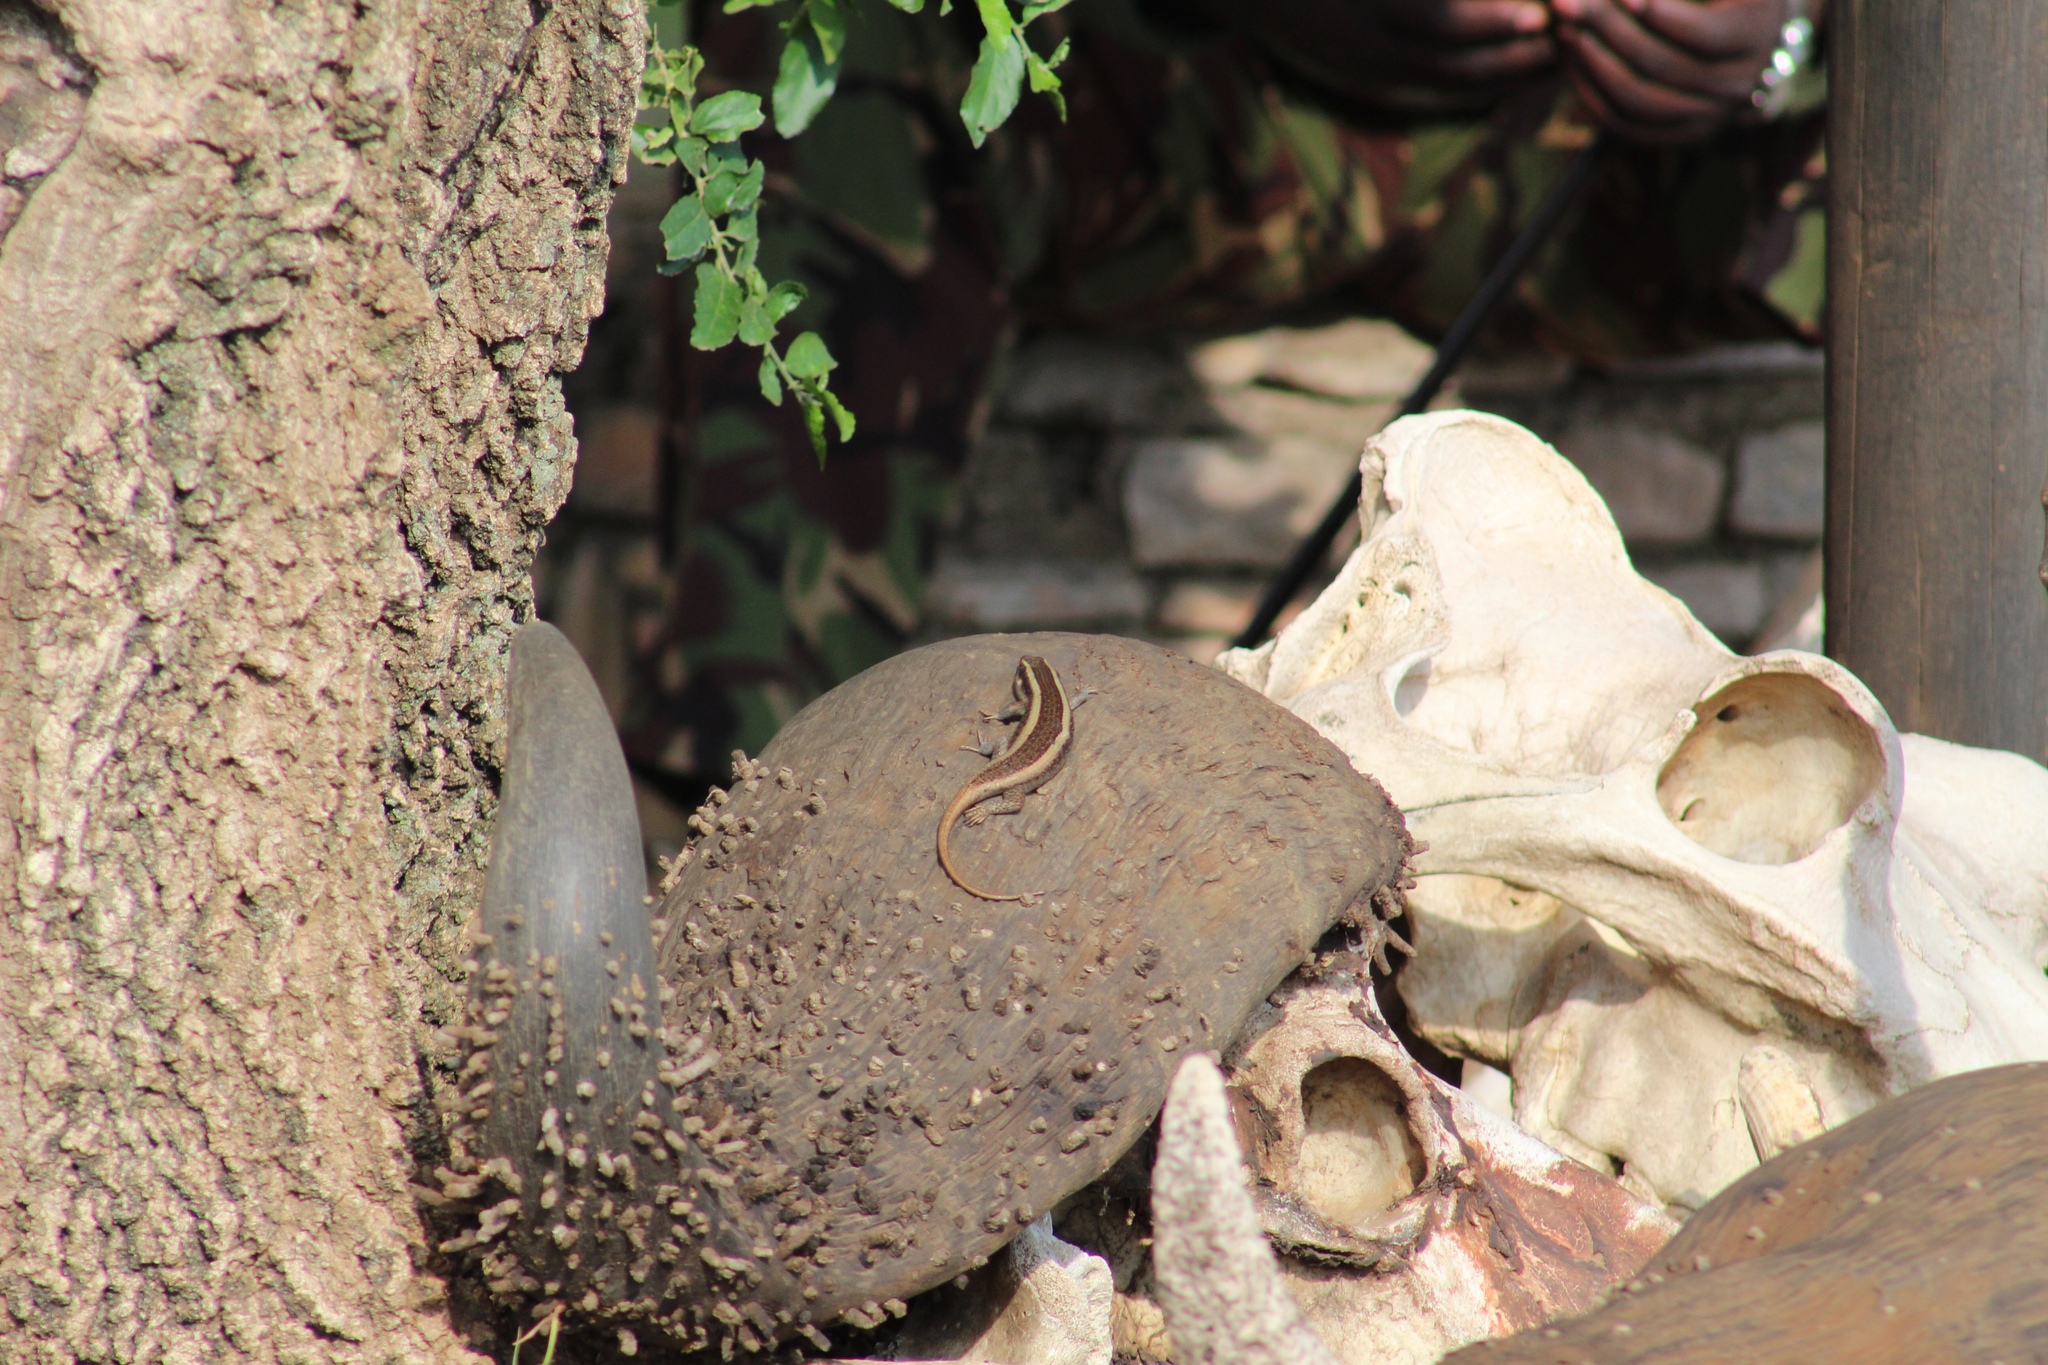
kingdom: Animalia
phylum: Chordata
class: Squamata
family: Scincidae
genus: Trachylepis
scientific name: Trachylepis striata
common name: African striped mabuya
